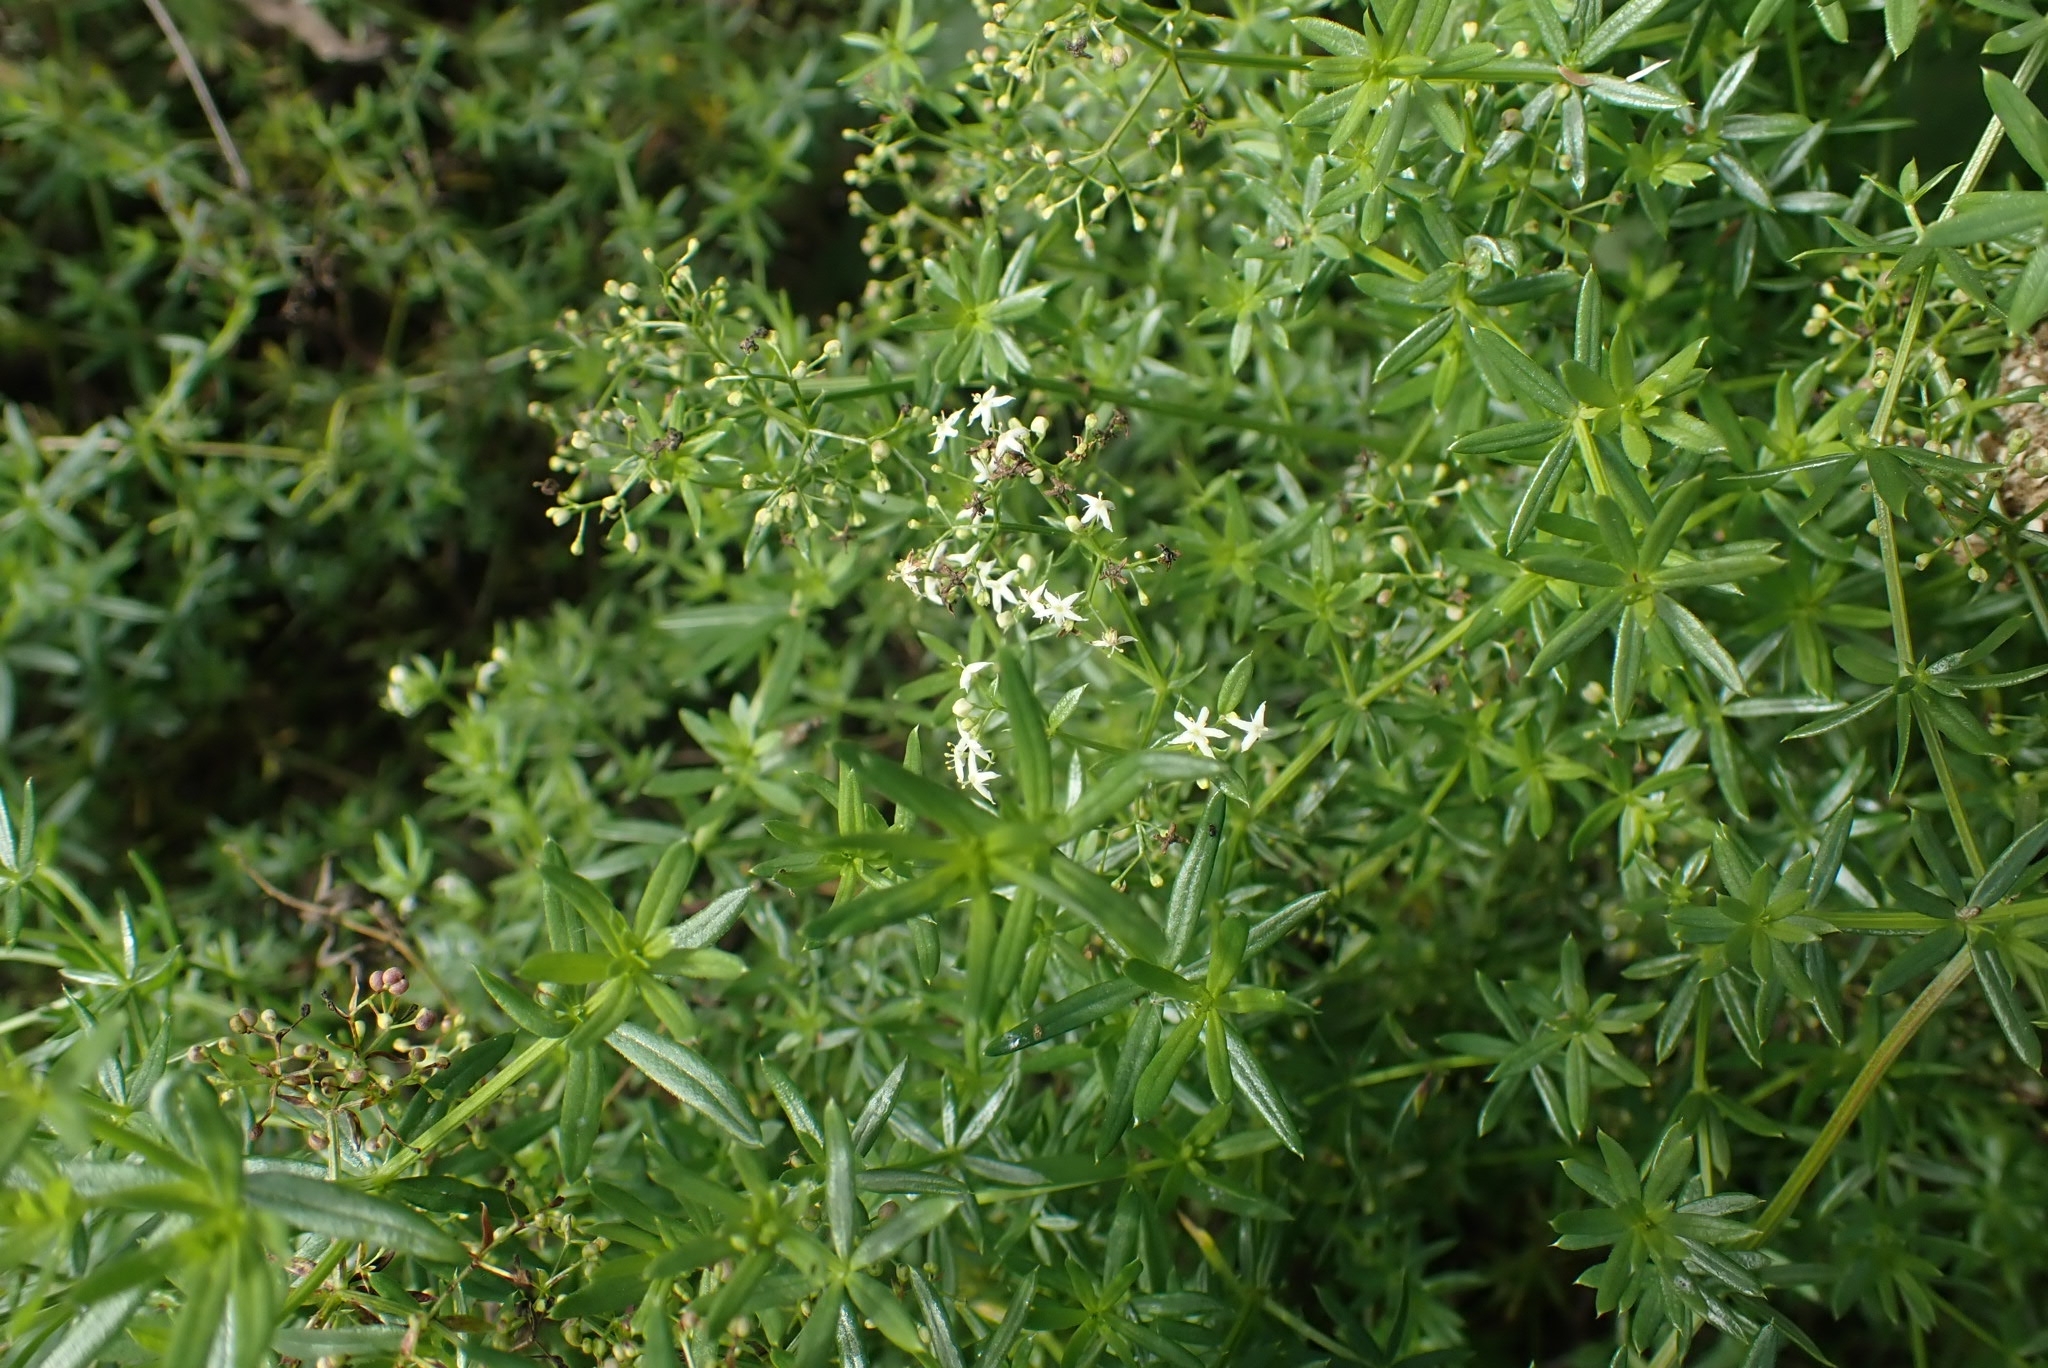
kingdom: Plantae
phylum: Tracheophyta
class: Magnoliopsida
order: Gentianales
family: Rubiaceae
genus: Galium
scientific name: Galium mollugo
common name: Hedge bedstraw
